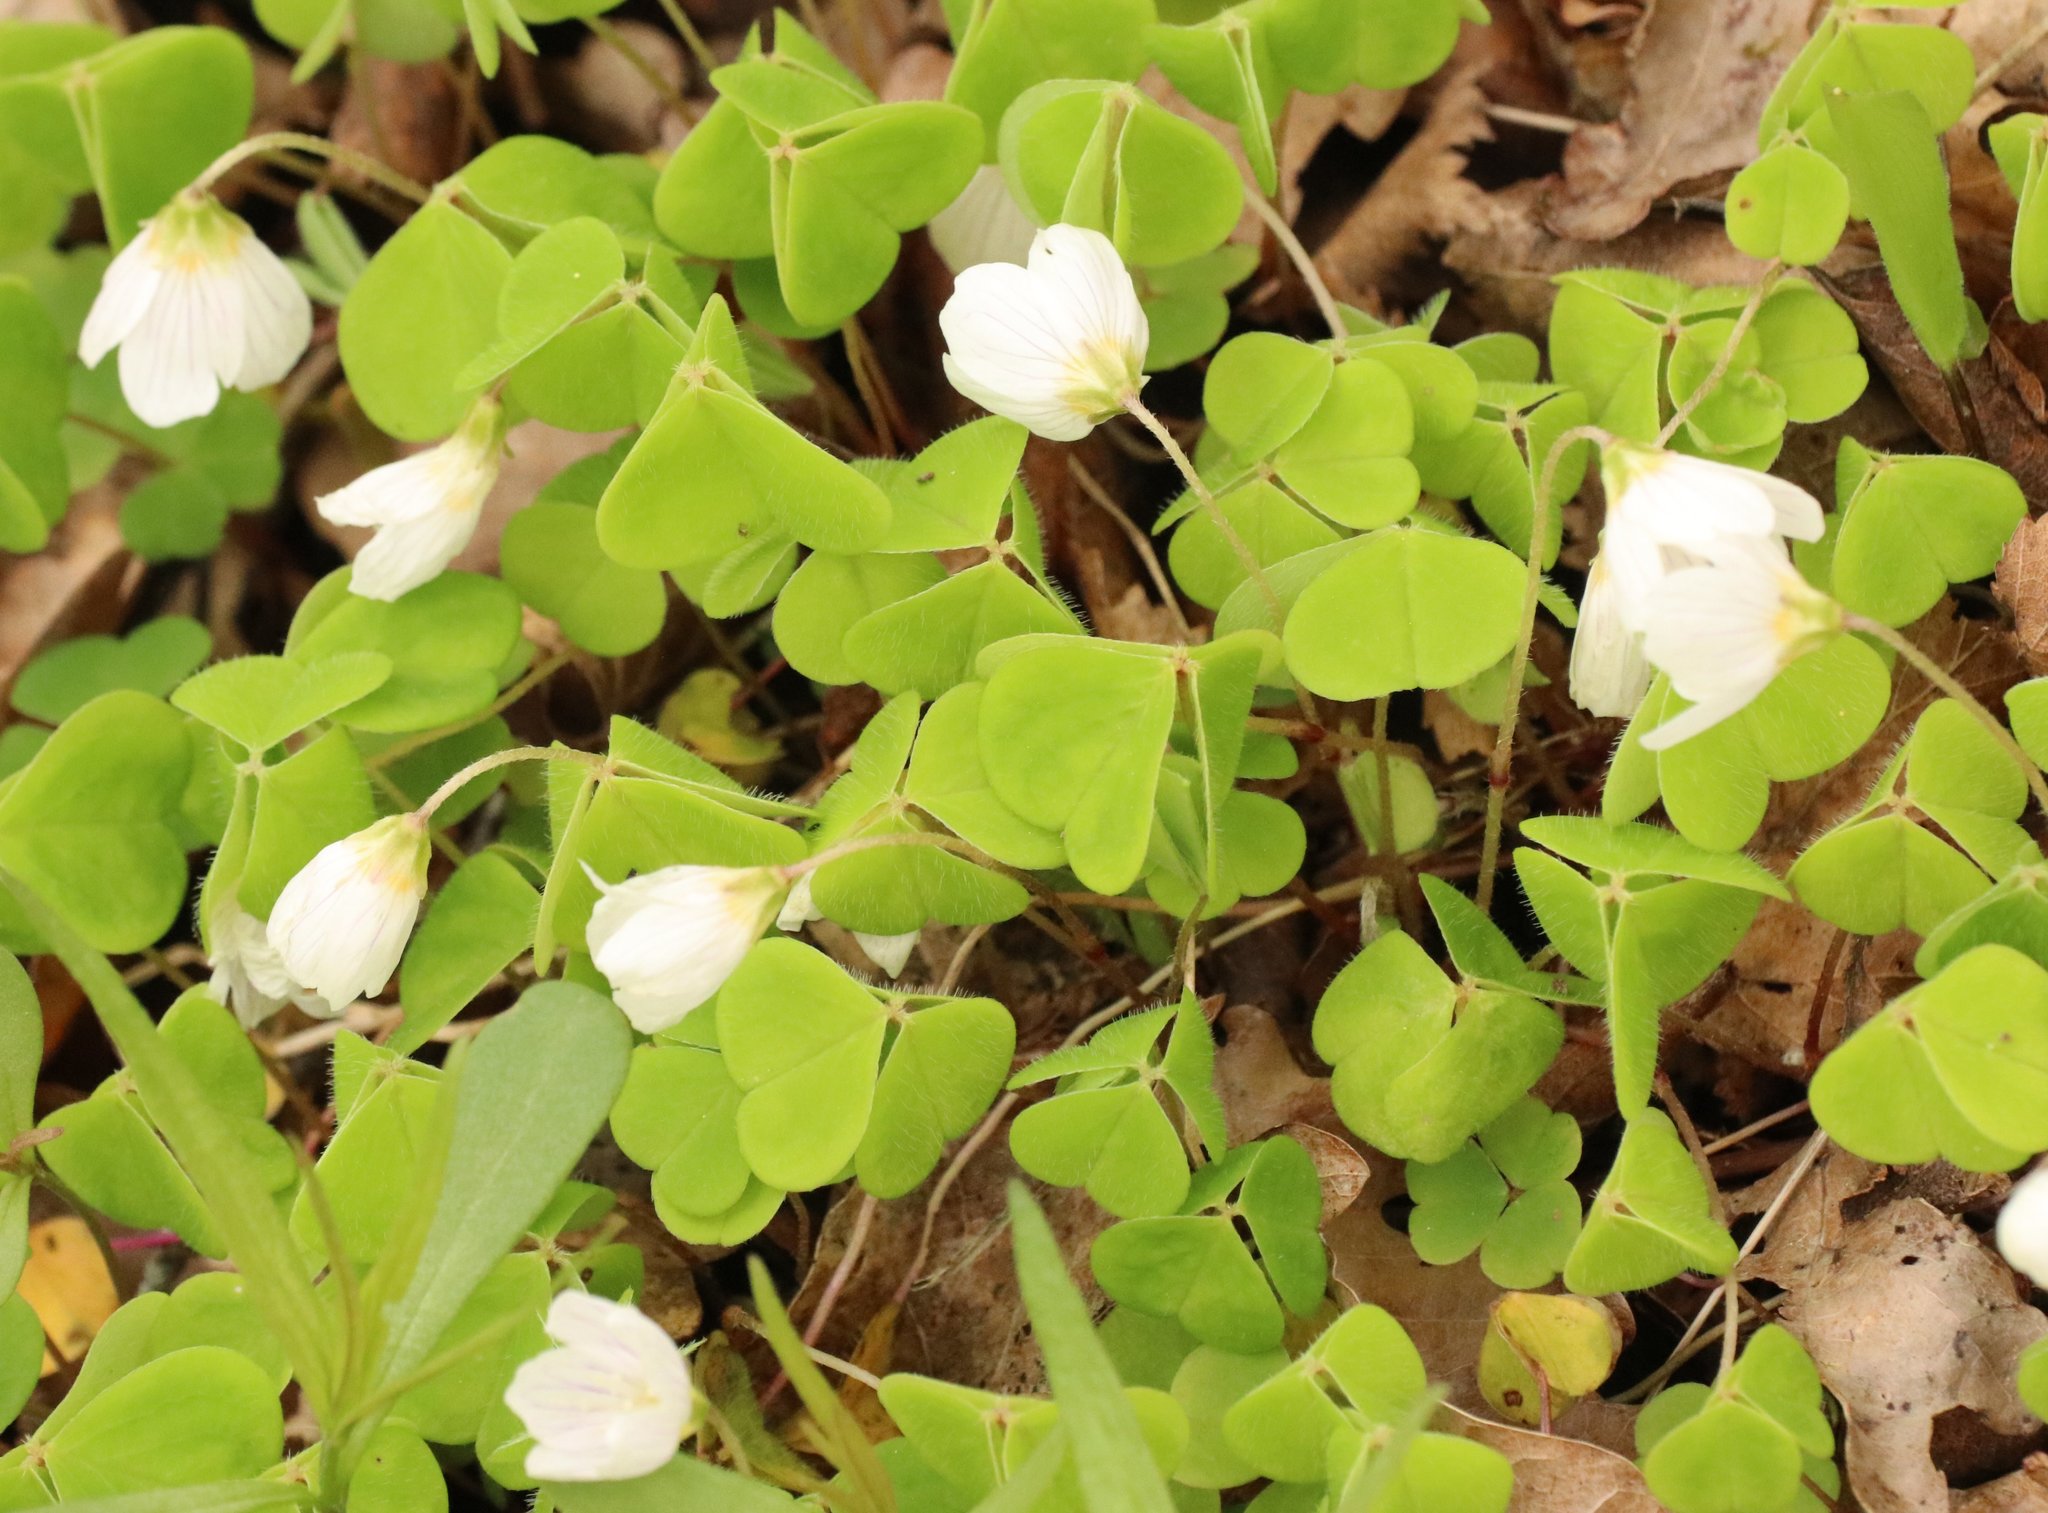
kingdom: Plantae
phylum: Tracheophyta
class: Magnoliopsida
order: Oxalidales
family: Oxalidaceae
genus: Oxalis
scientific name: Oxalis acetosella
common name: Wood-sorrel
